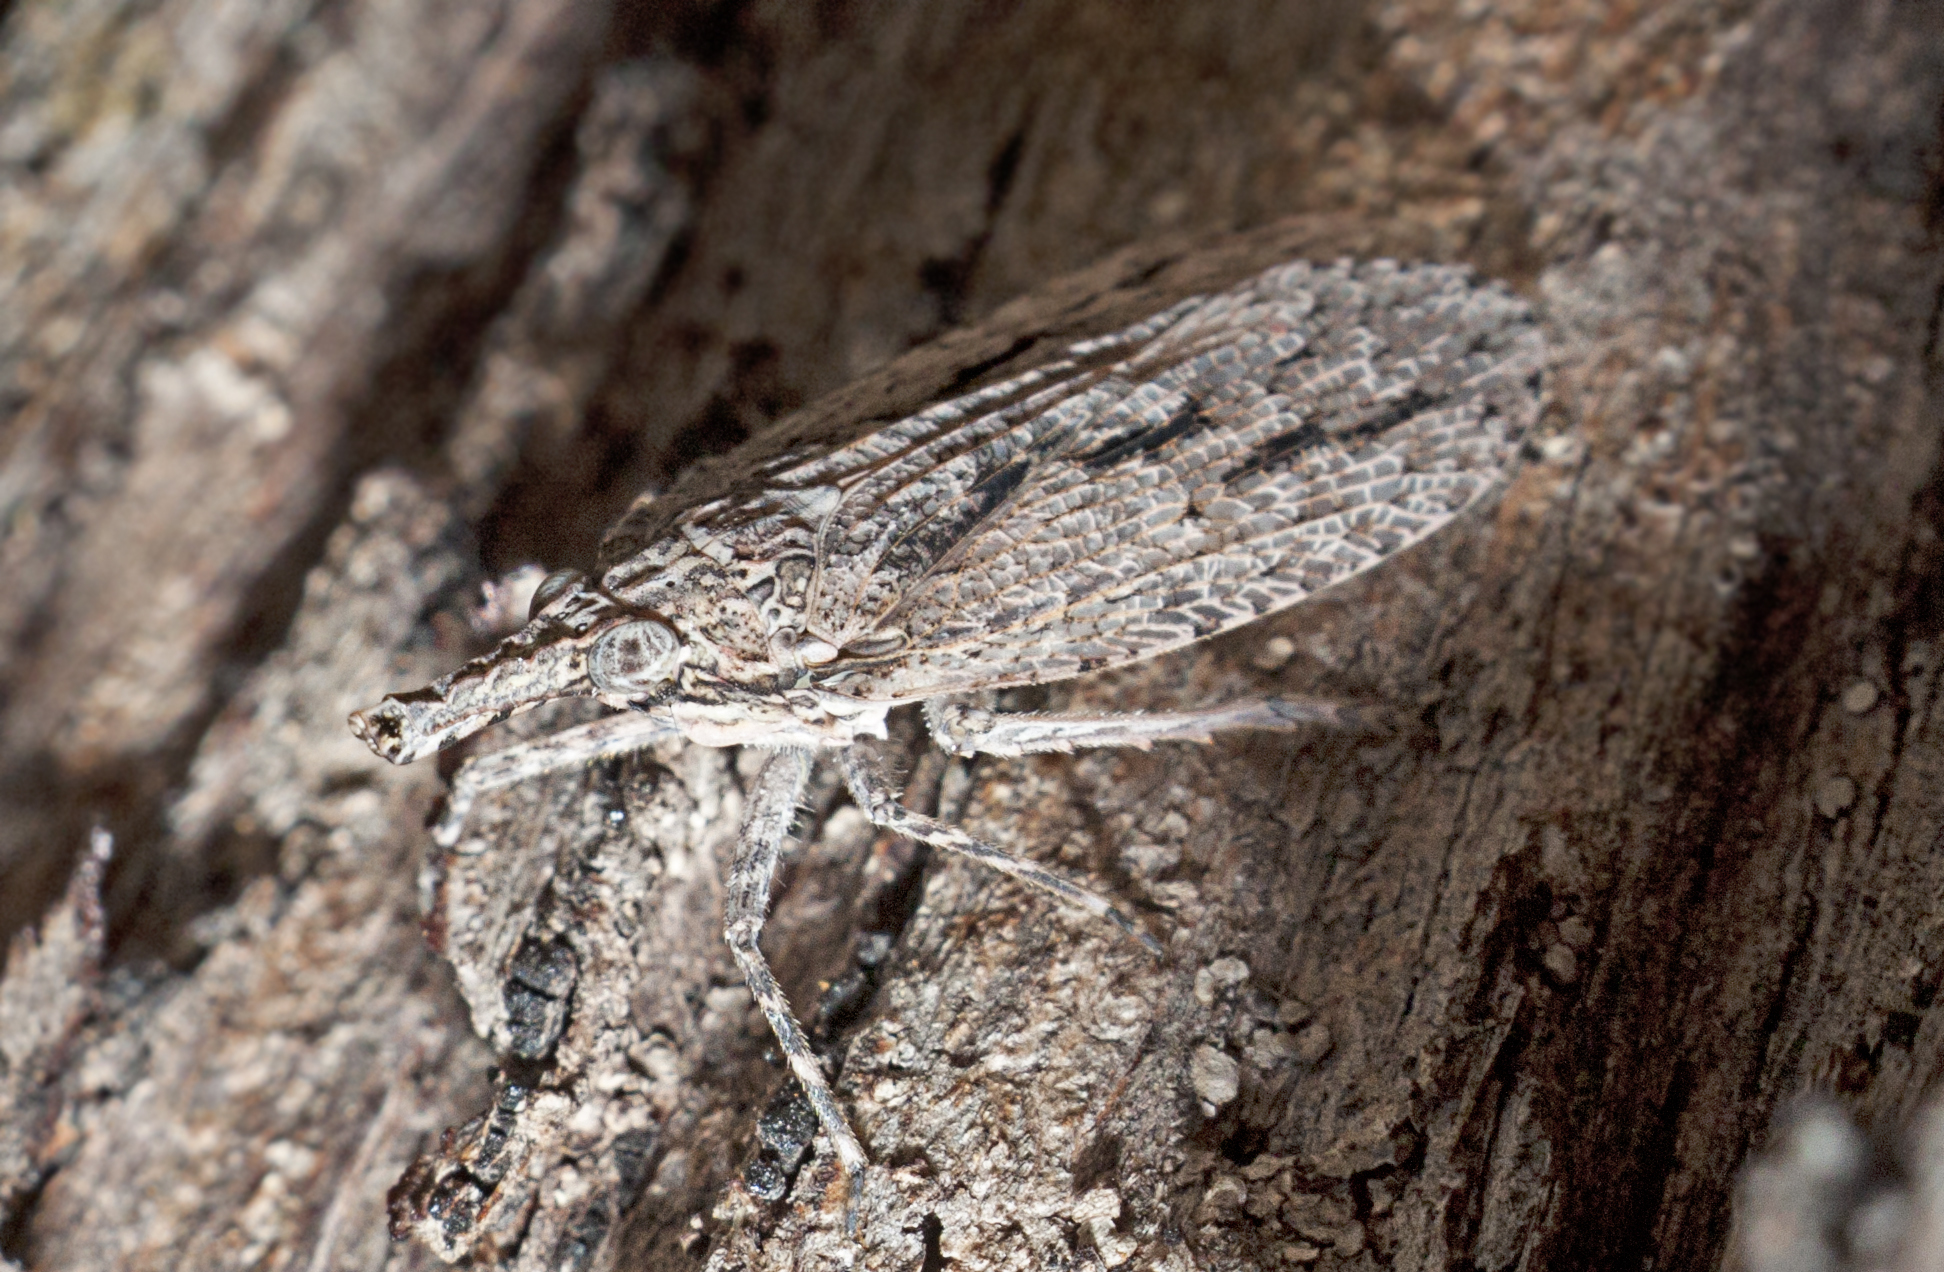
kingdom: Animalia
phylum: Arthropoda
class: Insecta
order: Hemiptera
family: Fulgoridae
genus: Eurinopsyche
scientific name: Eurinopsyche obscurata
